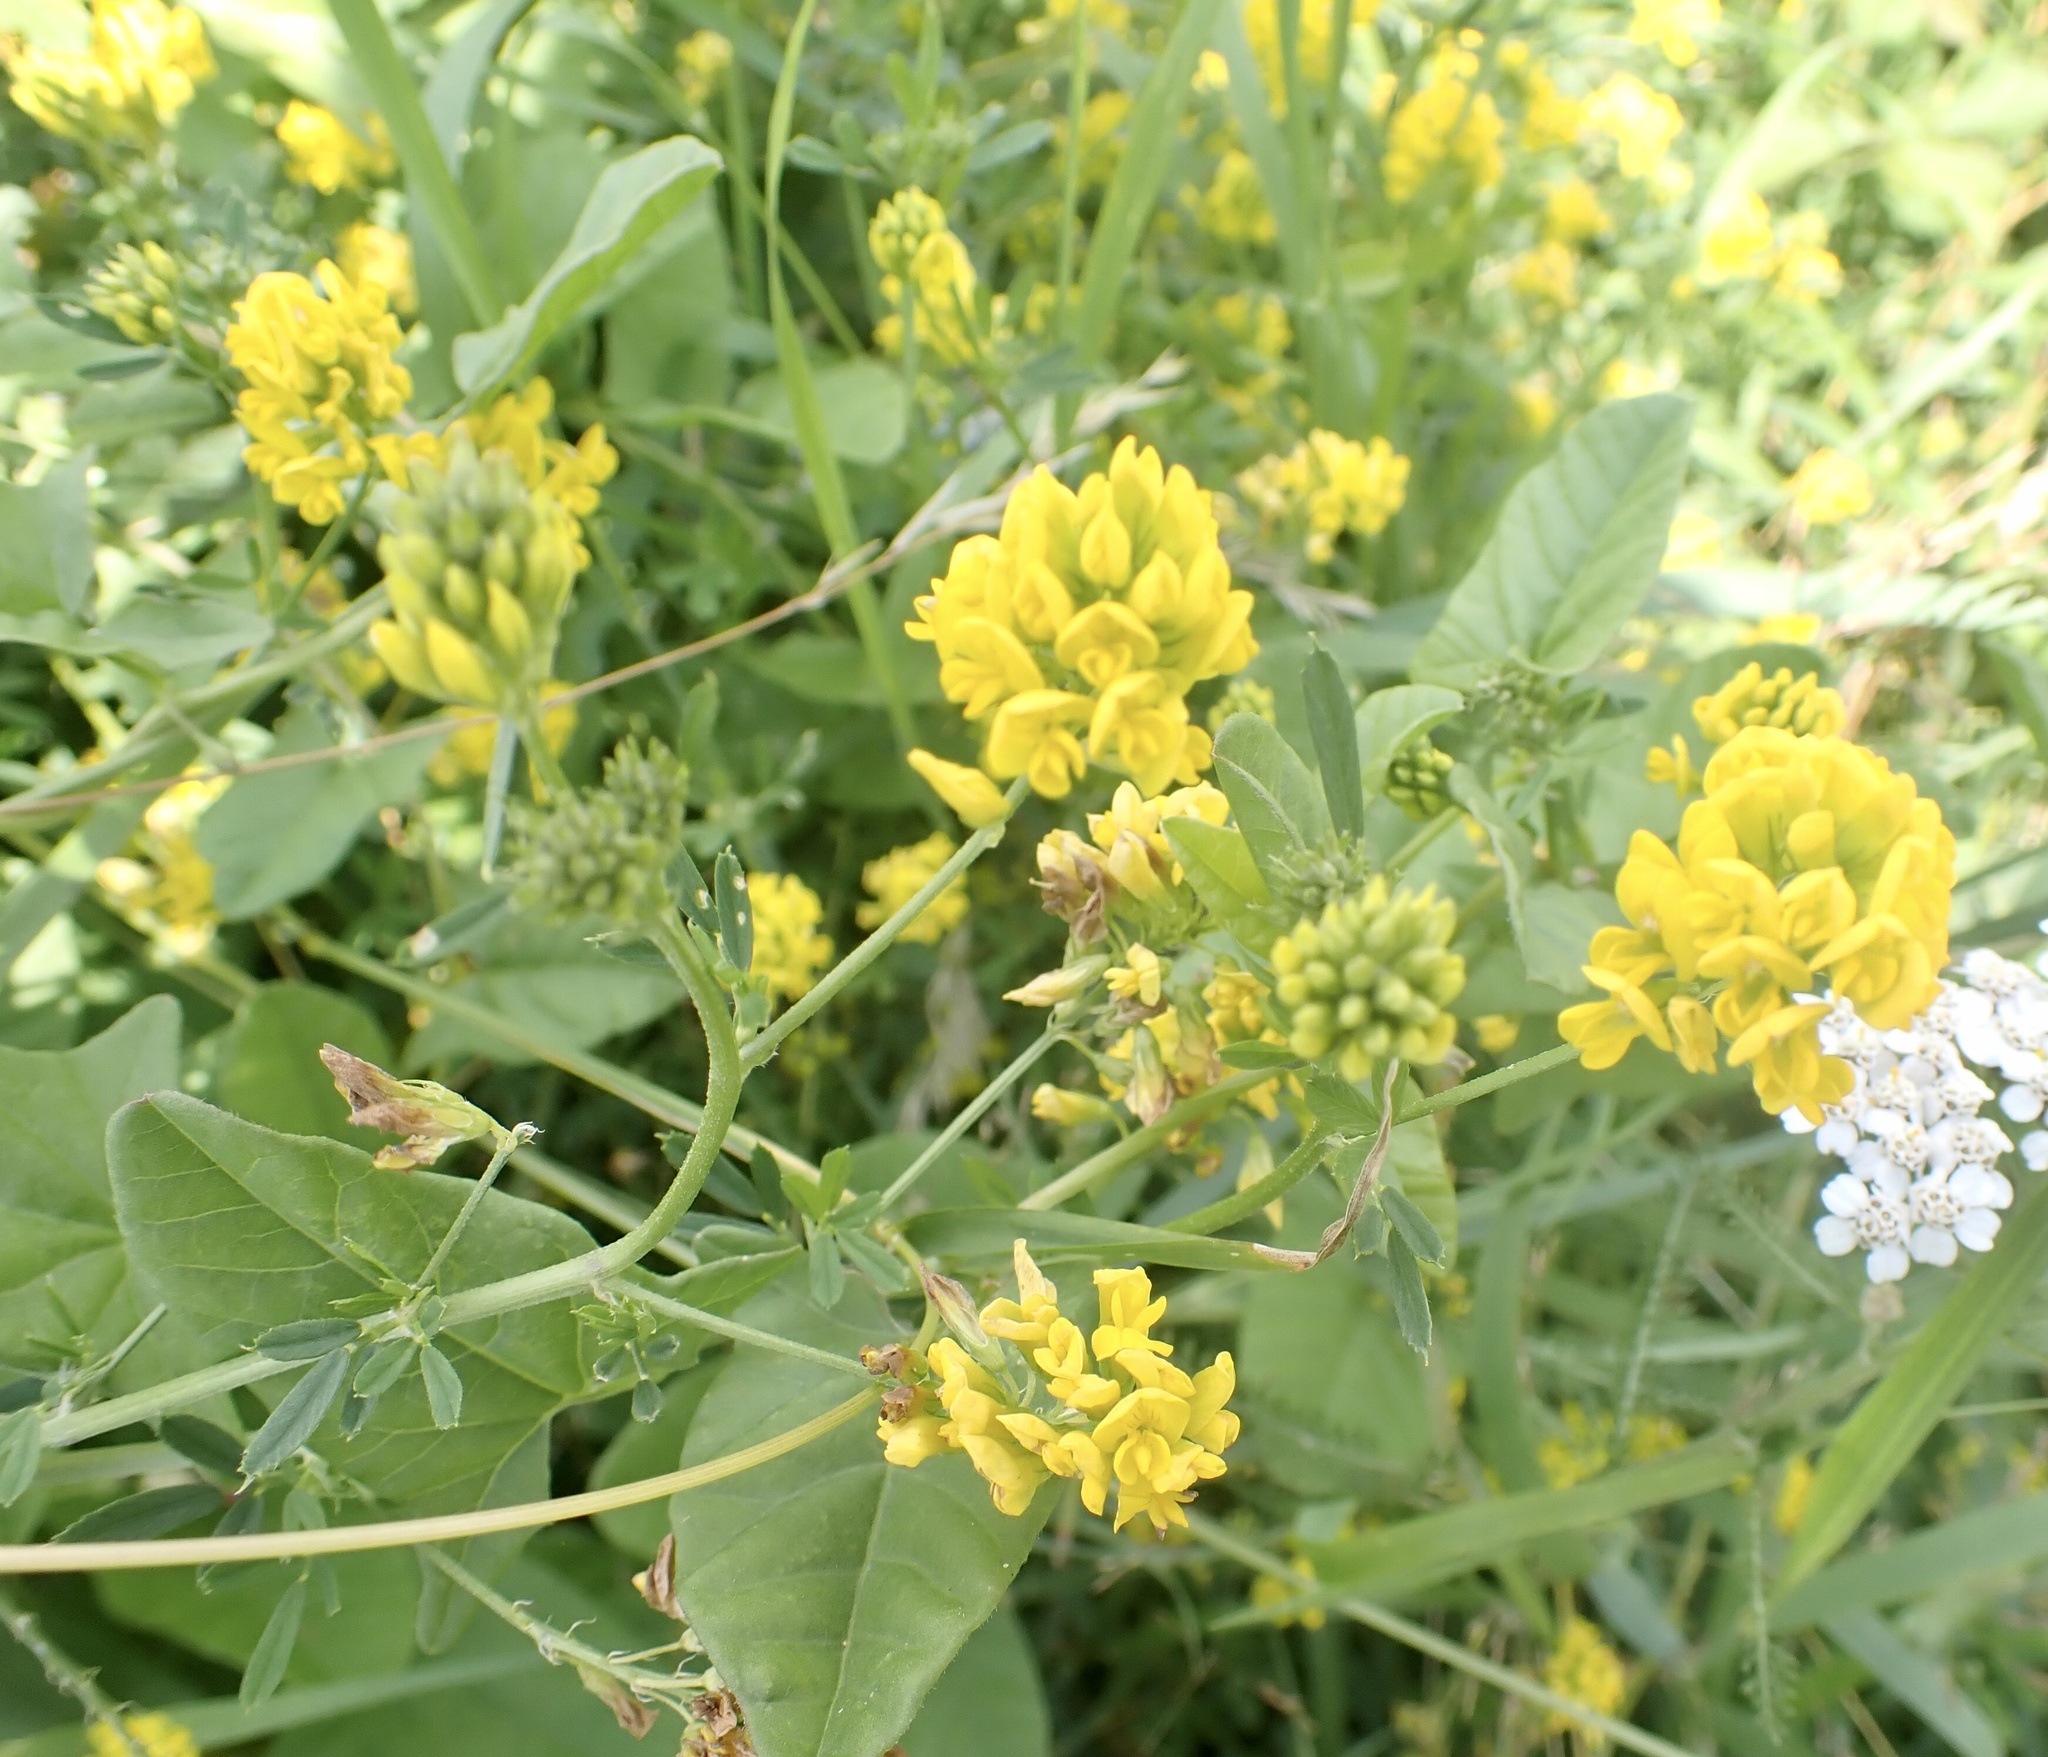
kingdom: Plantae
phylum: Tracheophyta
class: Magnoliopsida
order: Fabales
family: Fabaceae
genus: Medicago
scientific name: Medicago falcata
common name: Sickle medick
